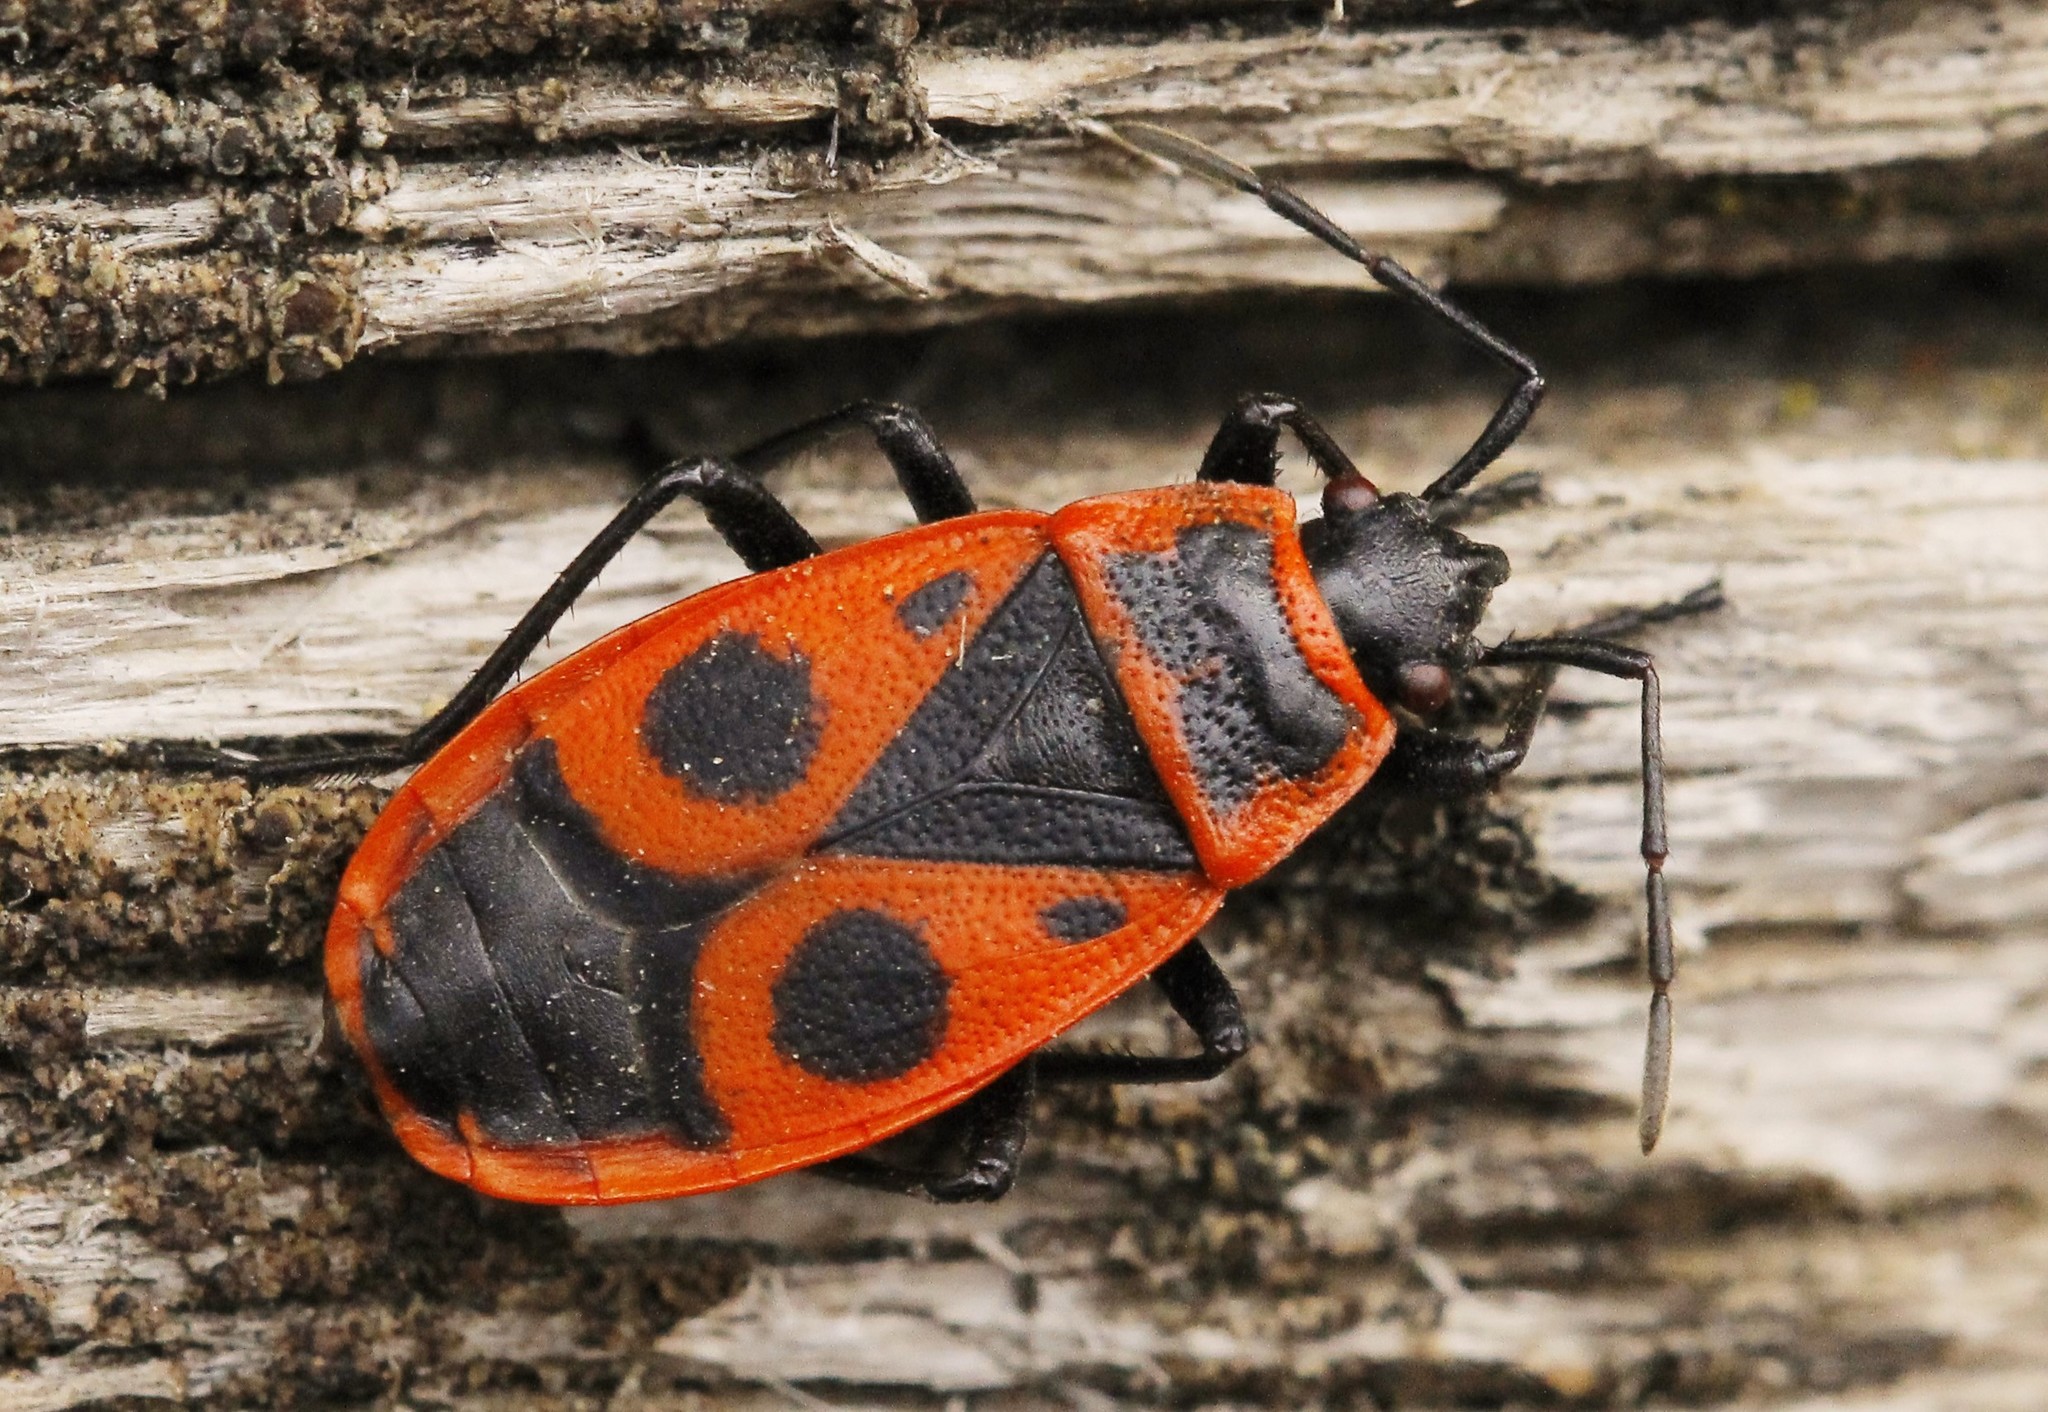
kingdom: Animalia
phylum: Arthropoda
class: Insecta
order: Hemiptera
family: Pyrrhocoridae
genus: Pyrrhocoris
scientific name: Pyrrhocoris apterus
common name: Firebug
